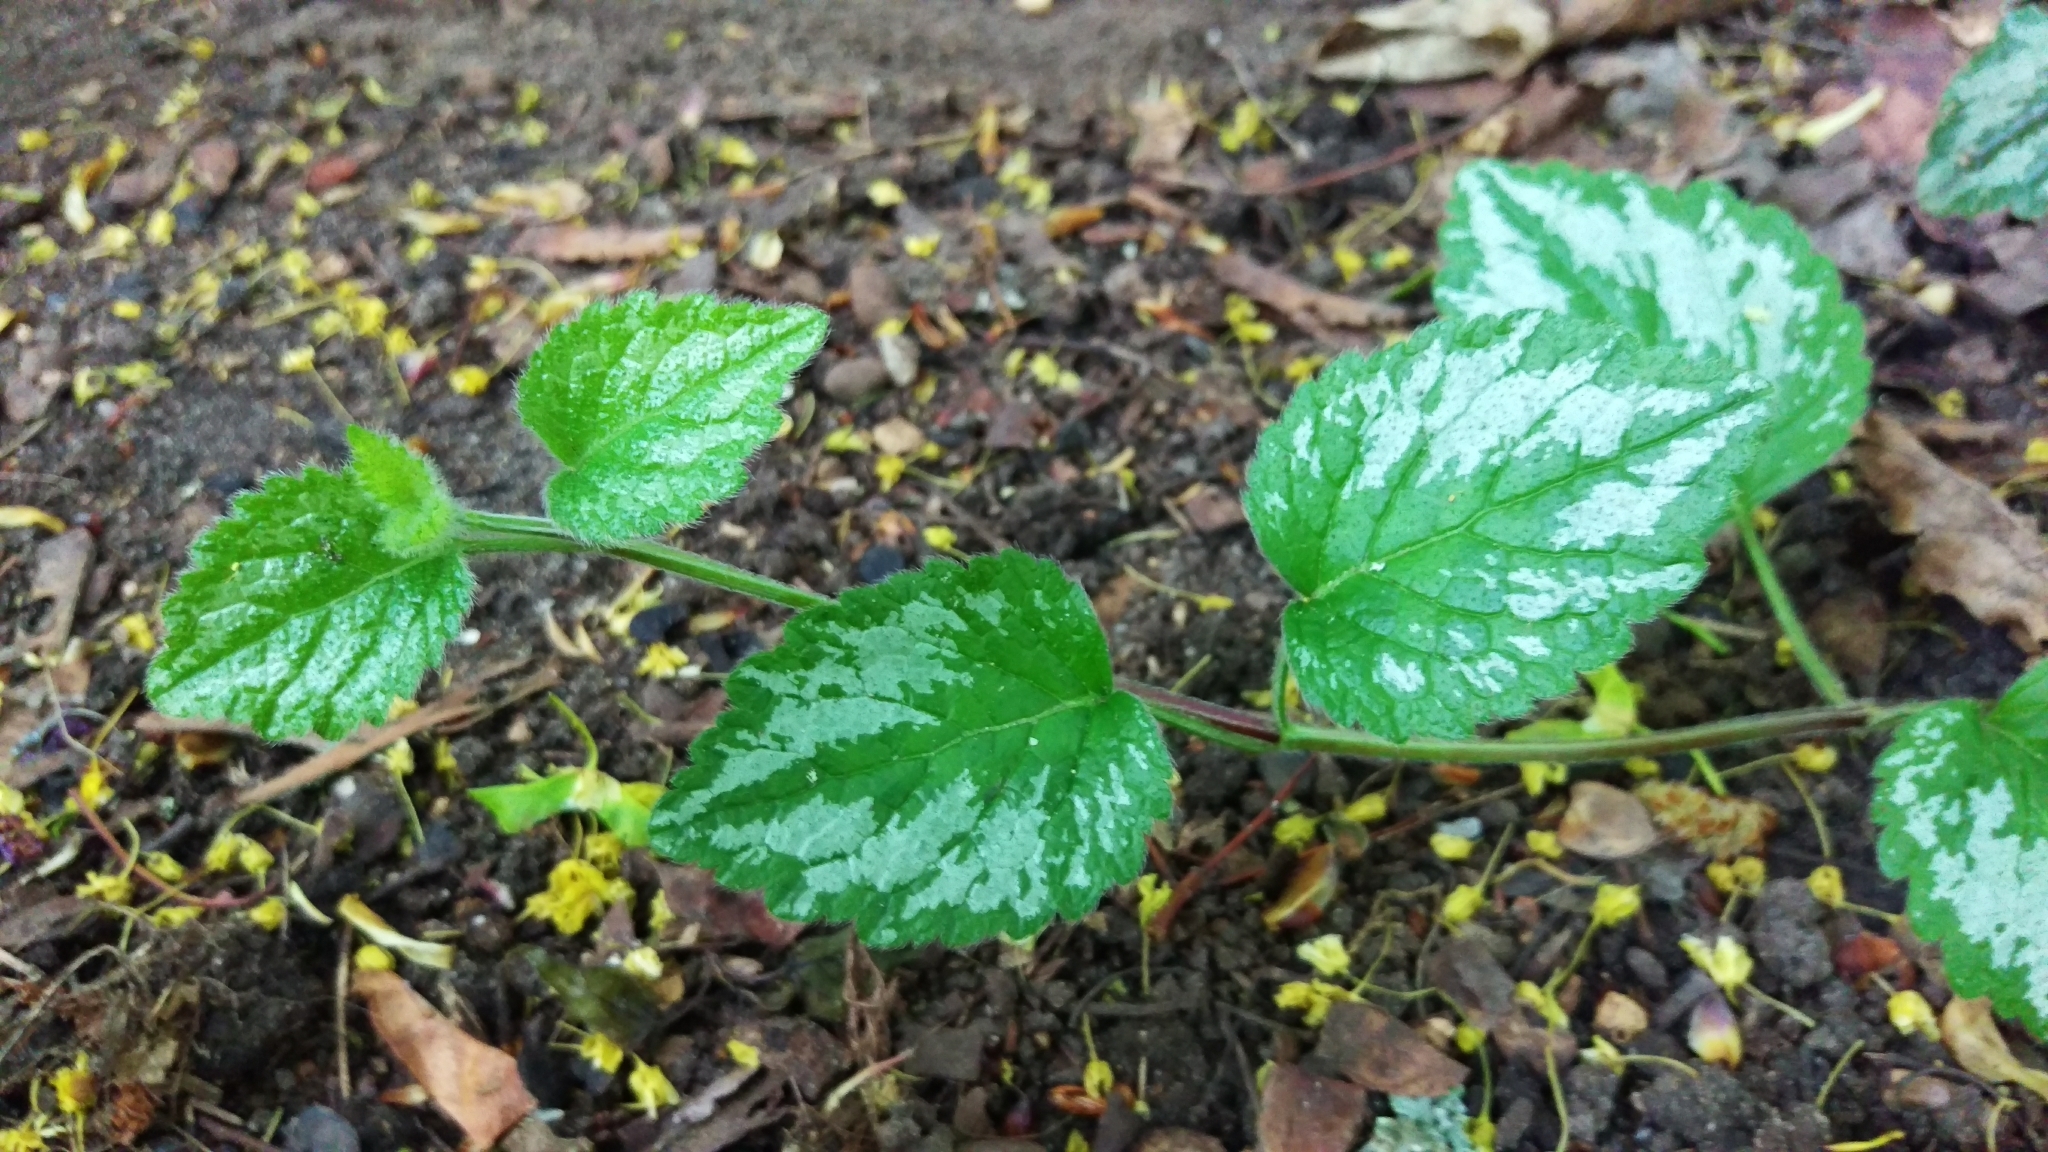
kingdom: Plantae
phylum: Tracheophyta
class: Magnoliopsida
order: Lamiales
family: Lamiaceae
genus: Lamium
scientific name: Lamium galeobdolon
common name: Yellow archangel
